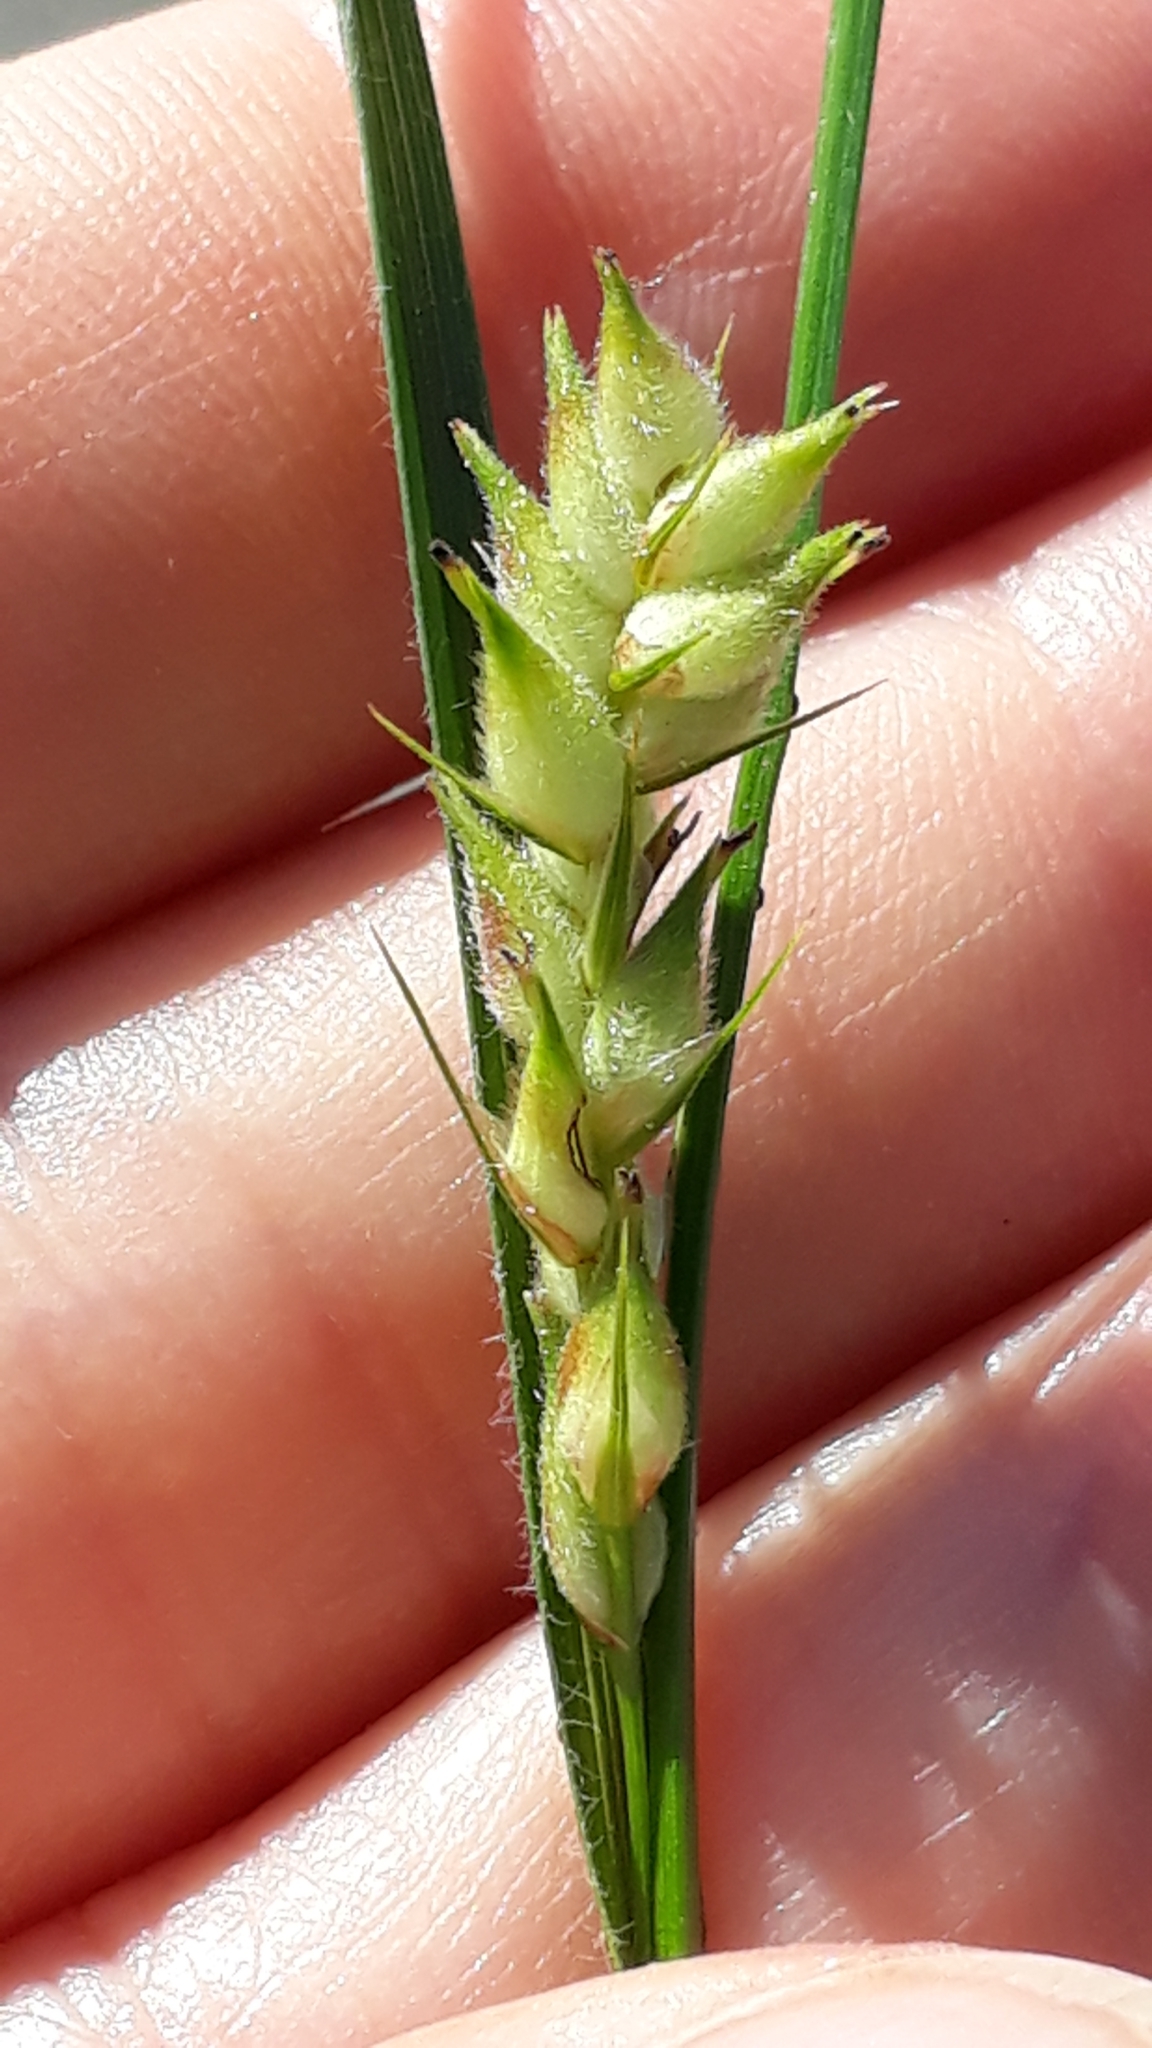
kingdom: Plantae
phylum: Tracheophyta
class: Liliopsida
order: Poales
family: Cyperaceae
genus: Carex
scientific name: Carex hirta
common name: Hairy sedge
